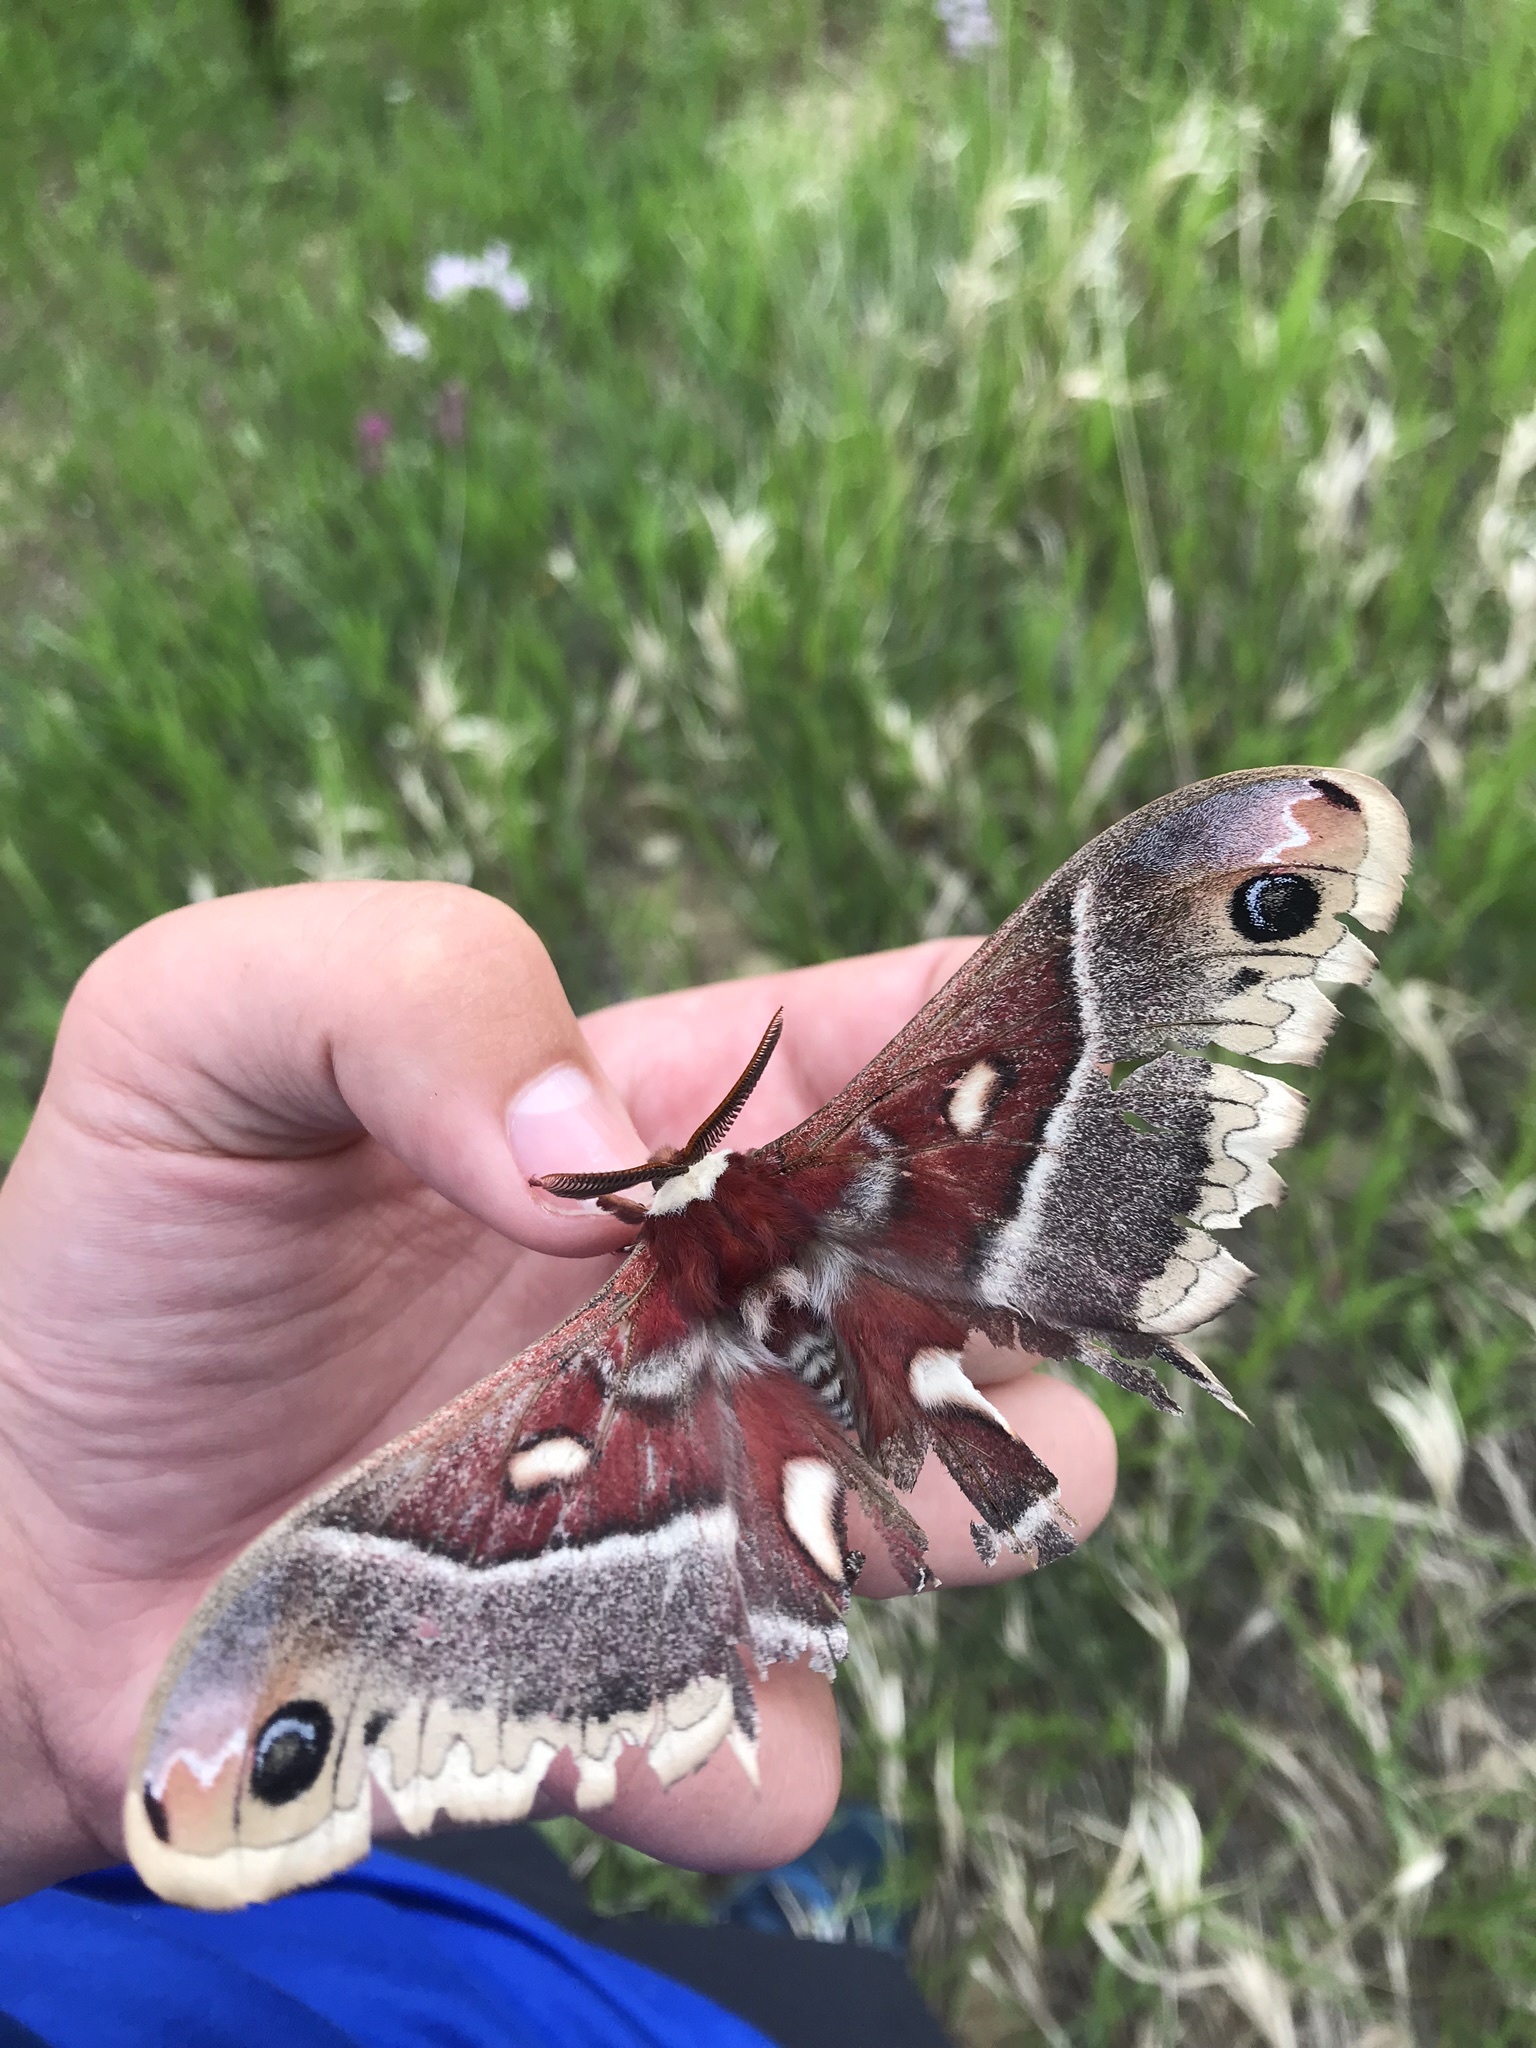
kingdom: Animalia
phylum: Arthropoda
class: Insecta
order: Lepidoptera
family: Saturniidae
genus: Hyalophora
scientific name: Hyalophora gloveri
